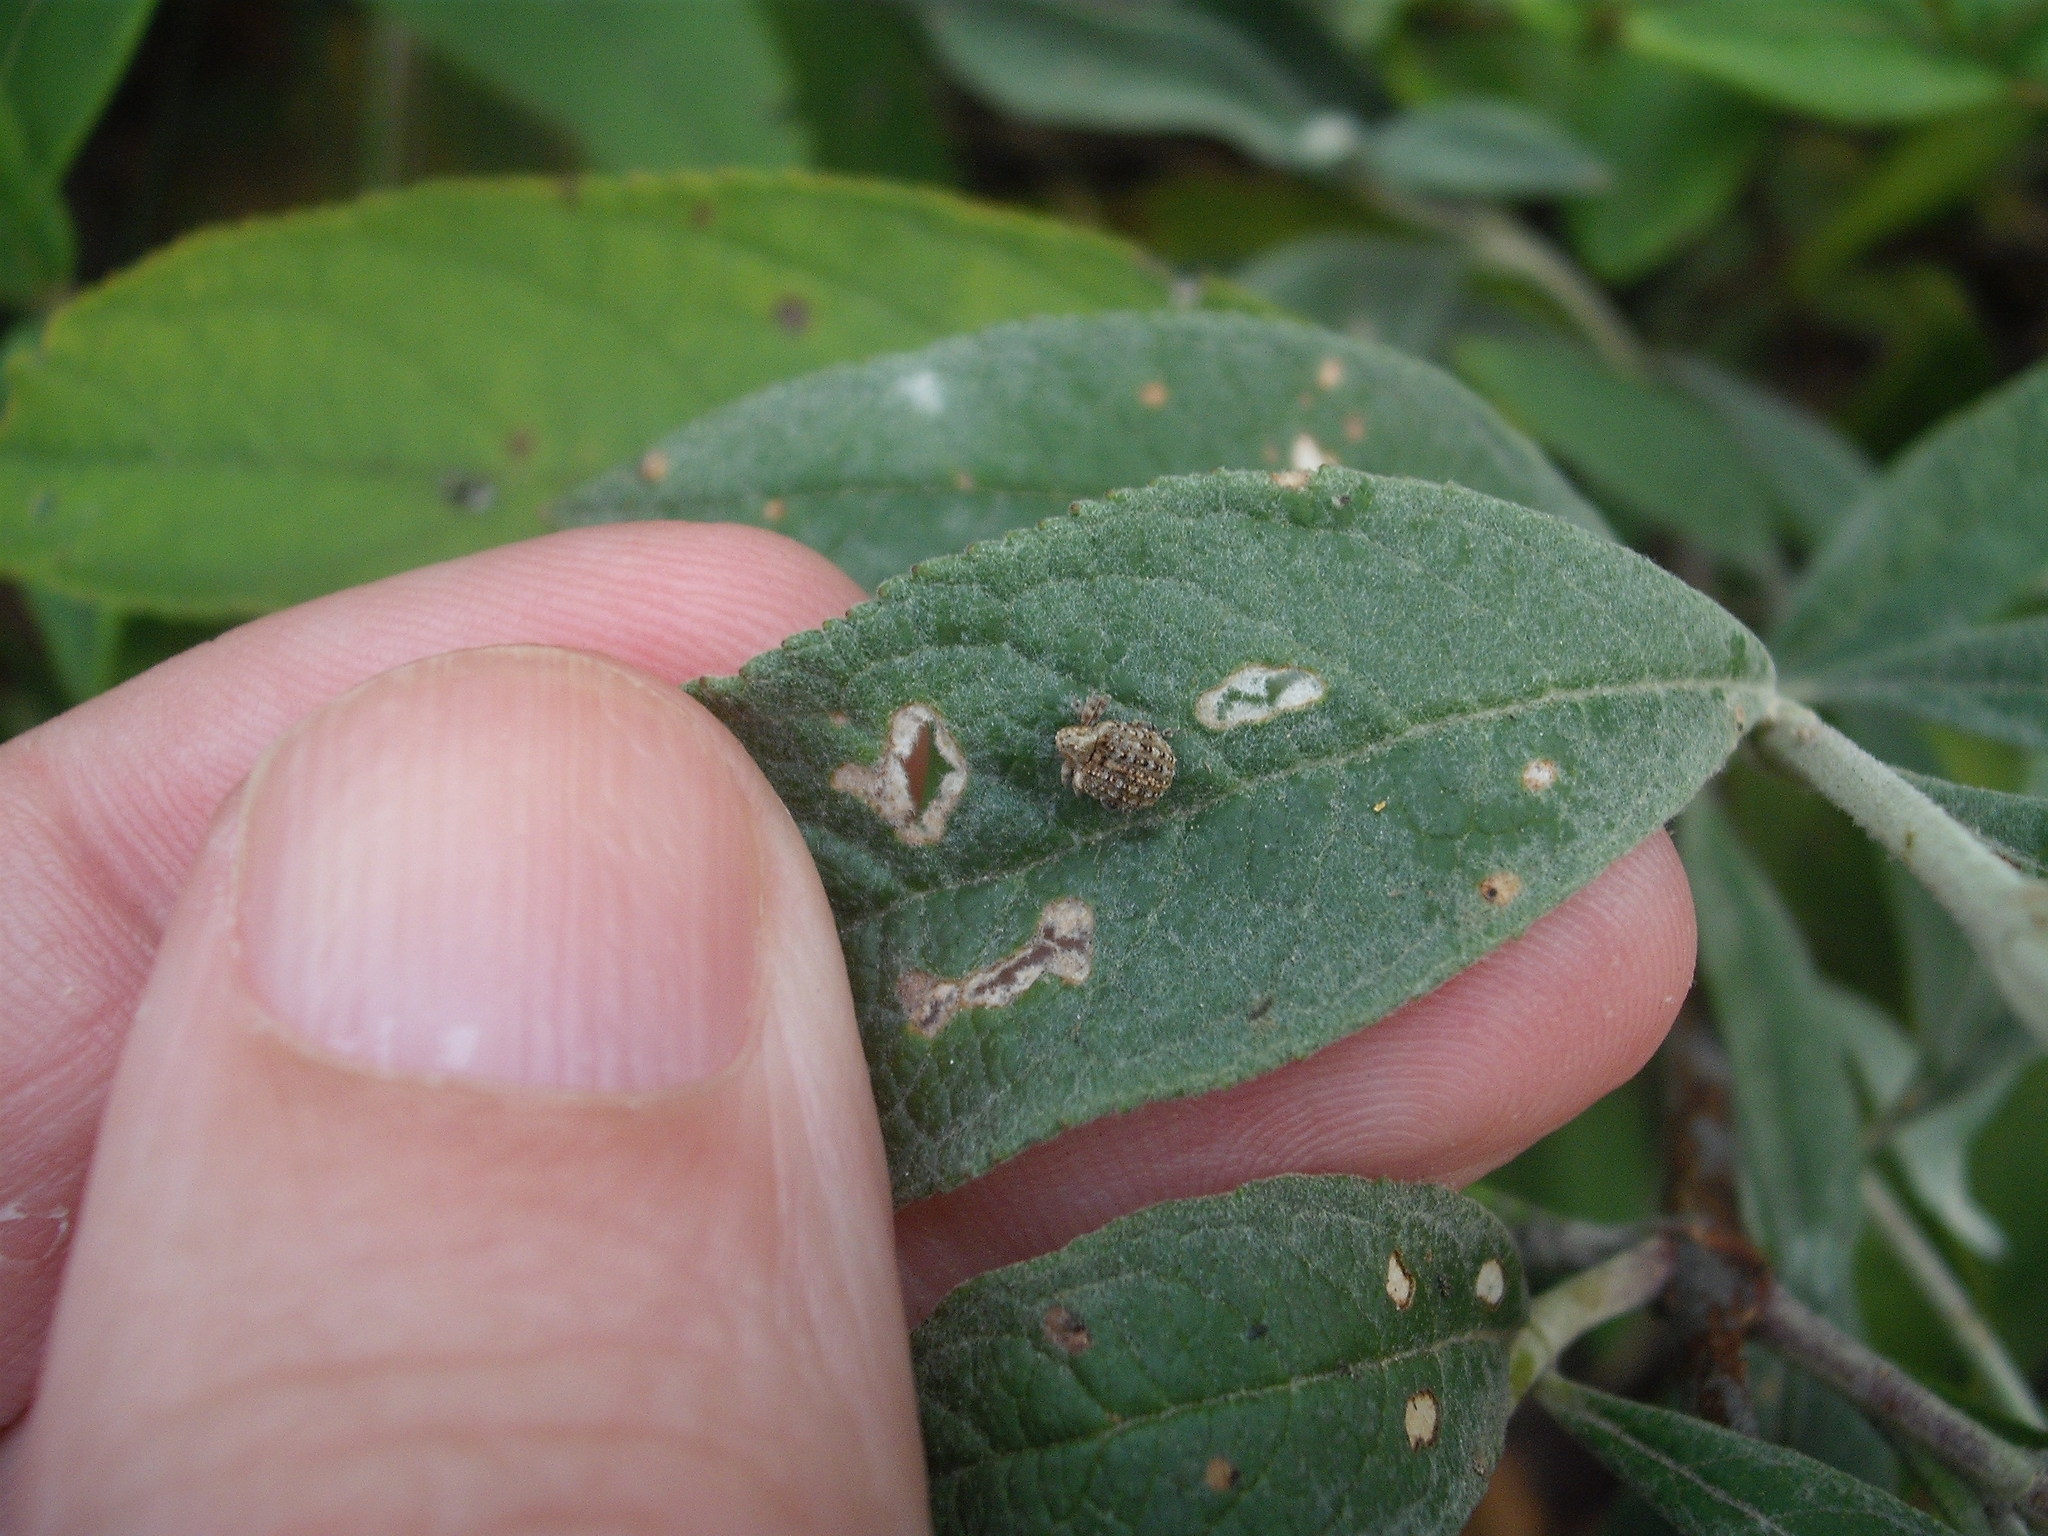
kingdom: Animalia
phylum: Arthropoda
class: Insecta
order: Coleoptera
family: Curculionidae
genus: Cleopus
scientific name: Cleopus japonicus
